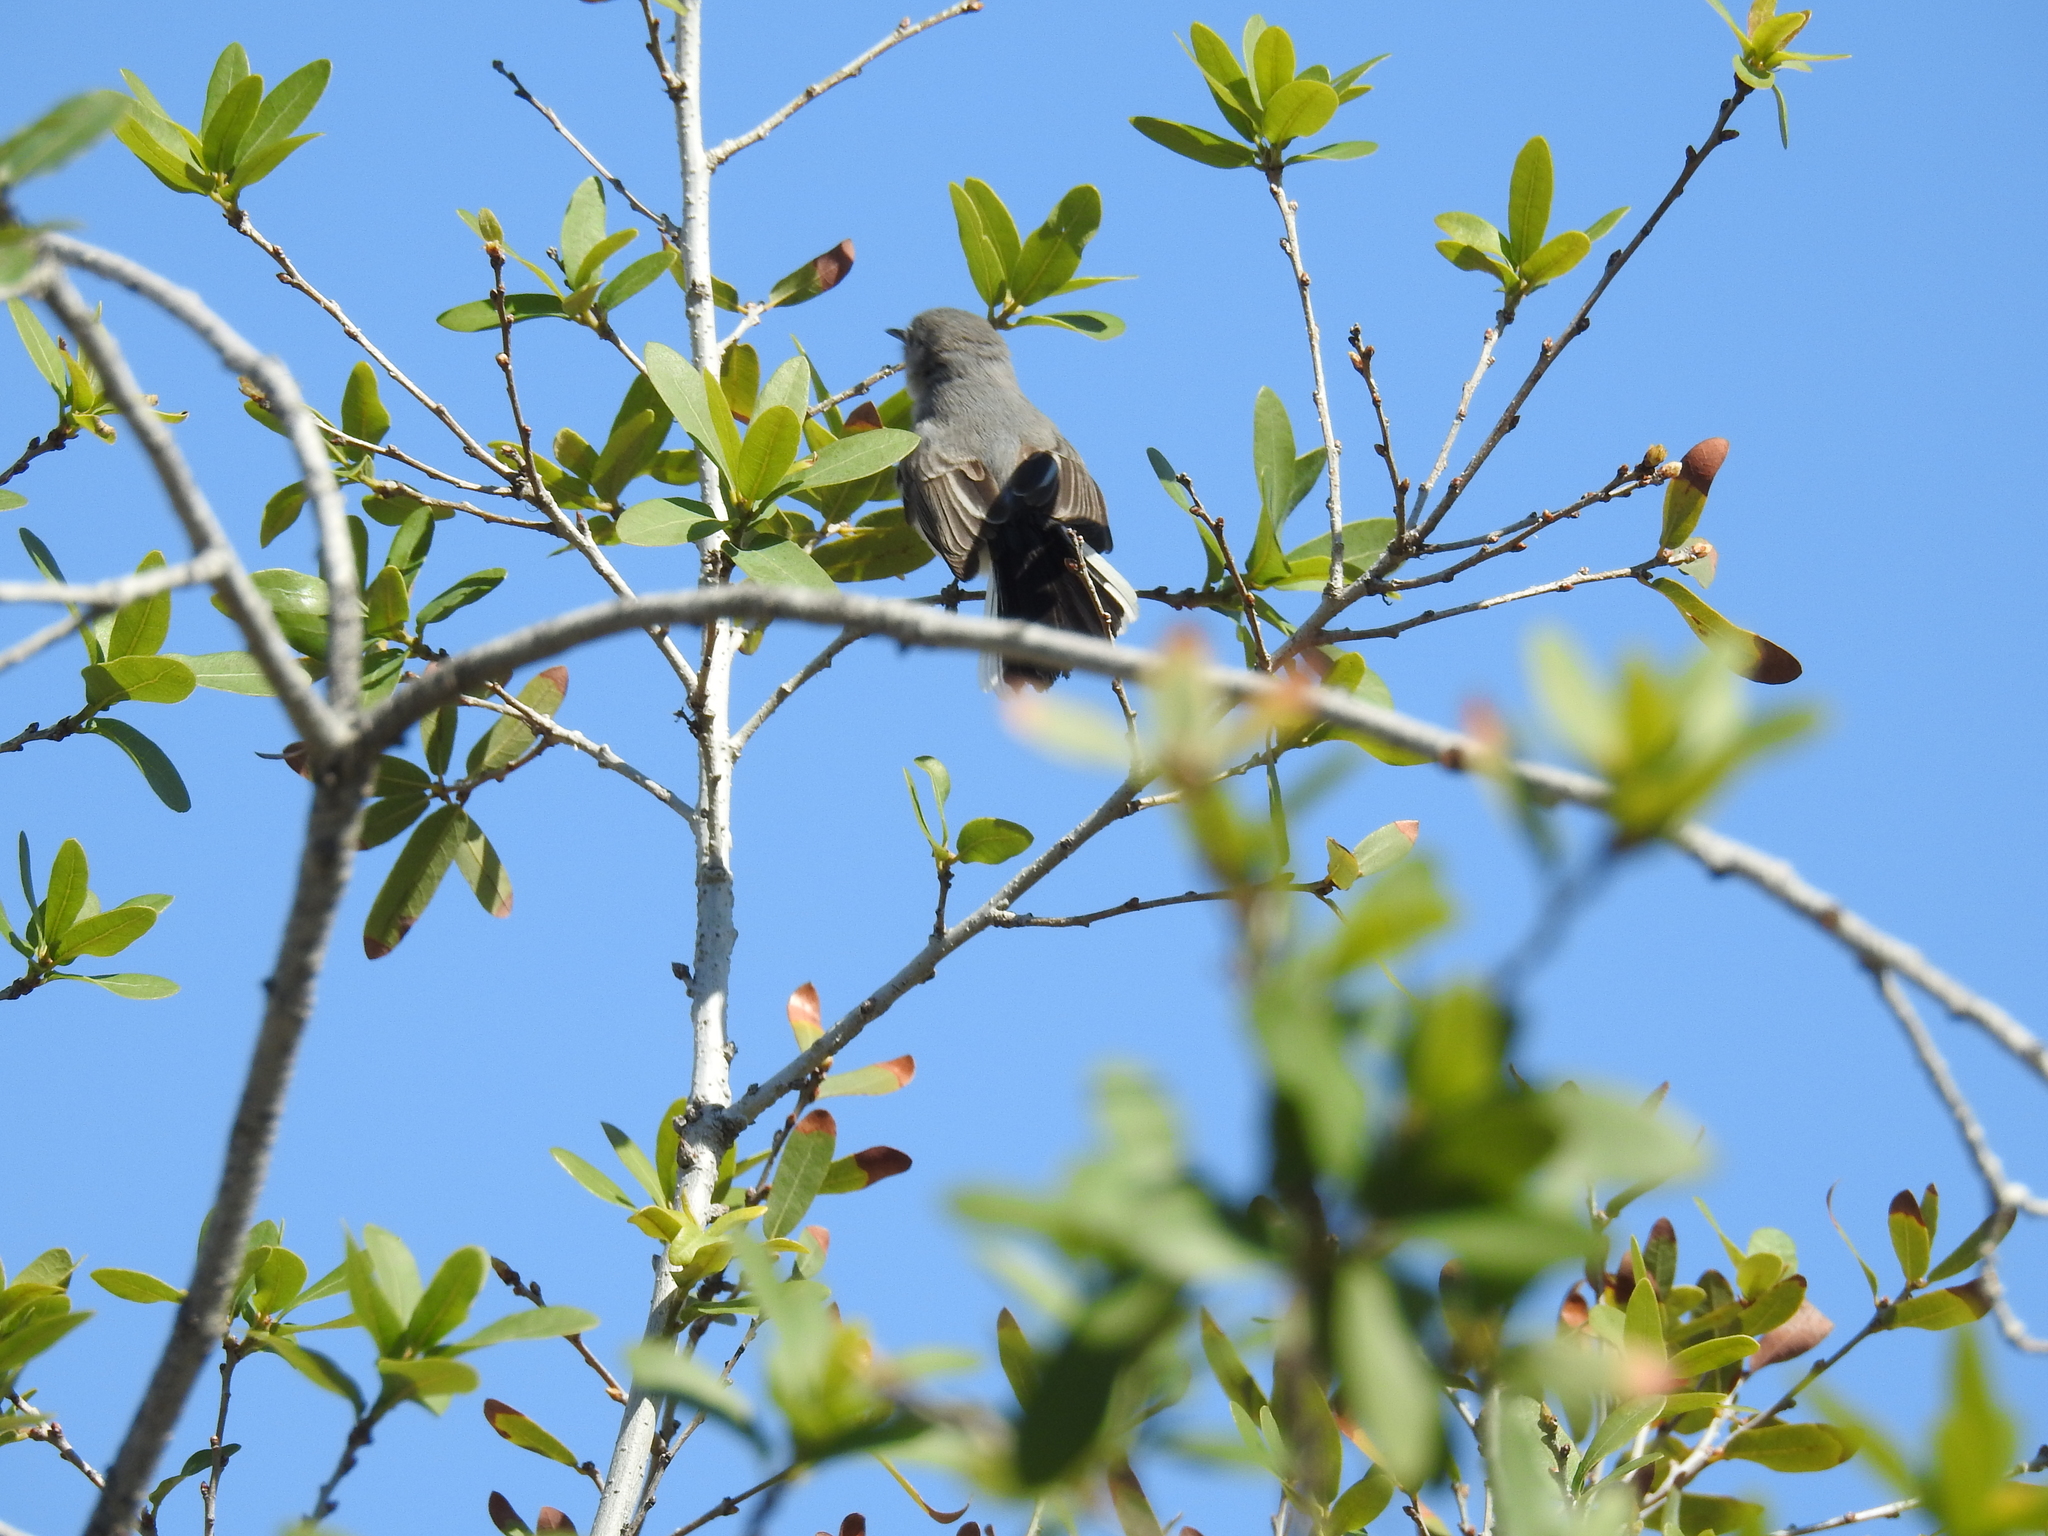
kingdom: Animalia
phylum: Chordata
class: Aves
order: Passeriformes
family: Polioptilidae
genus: Polioptila
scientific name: Polioptila caerulea
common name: Blue-gray gnatcatcher
